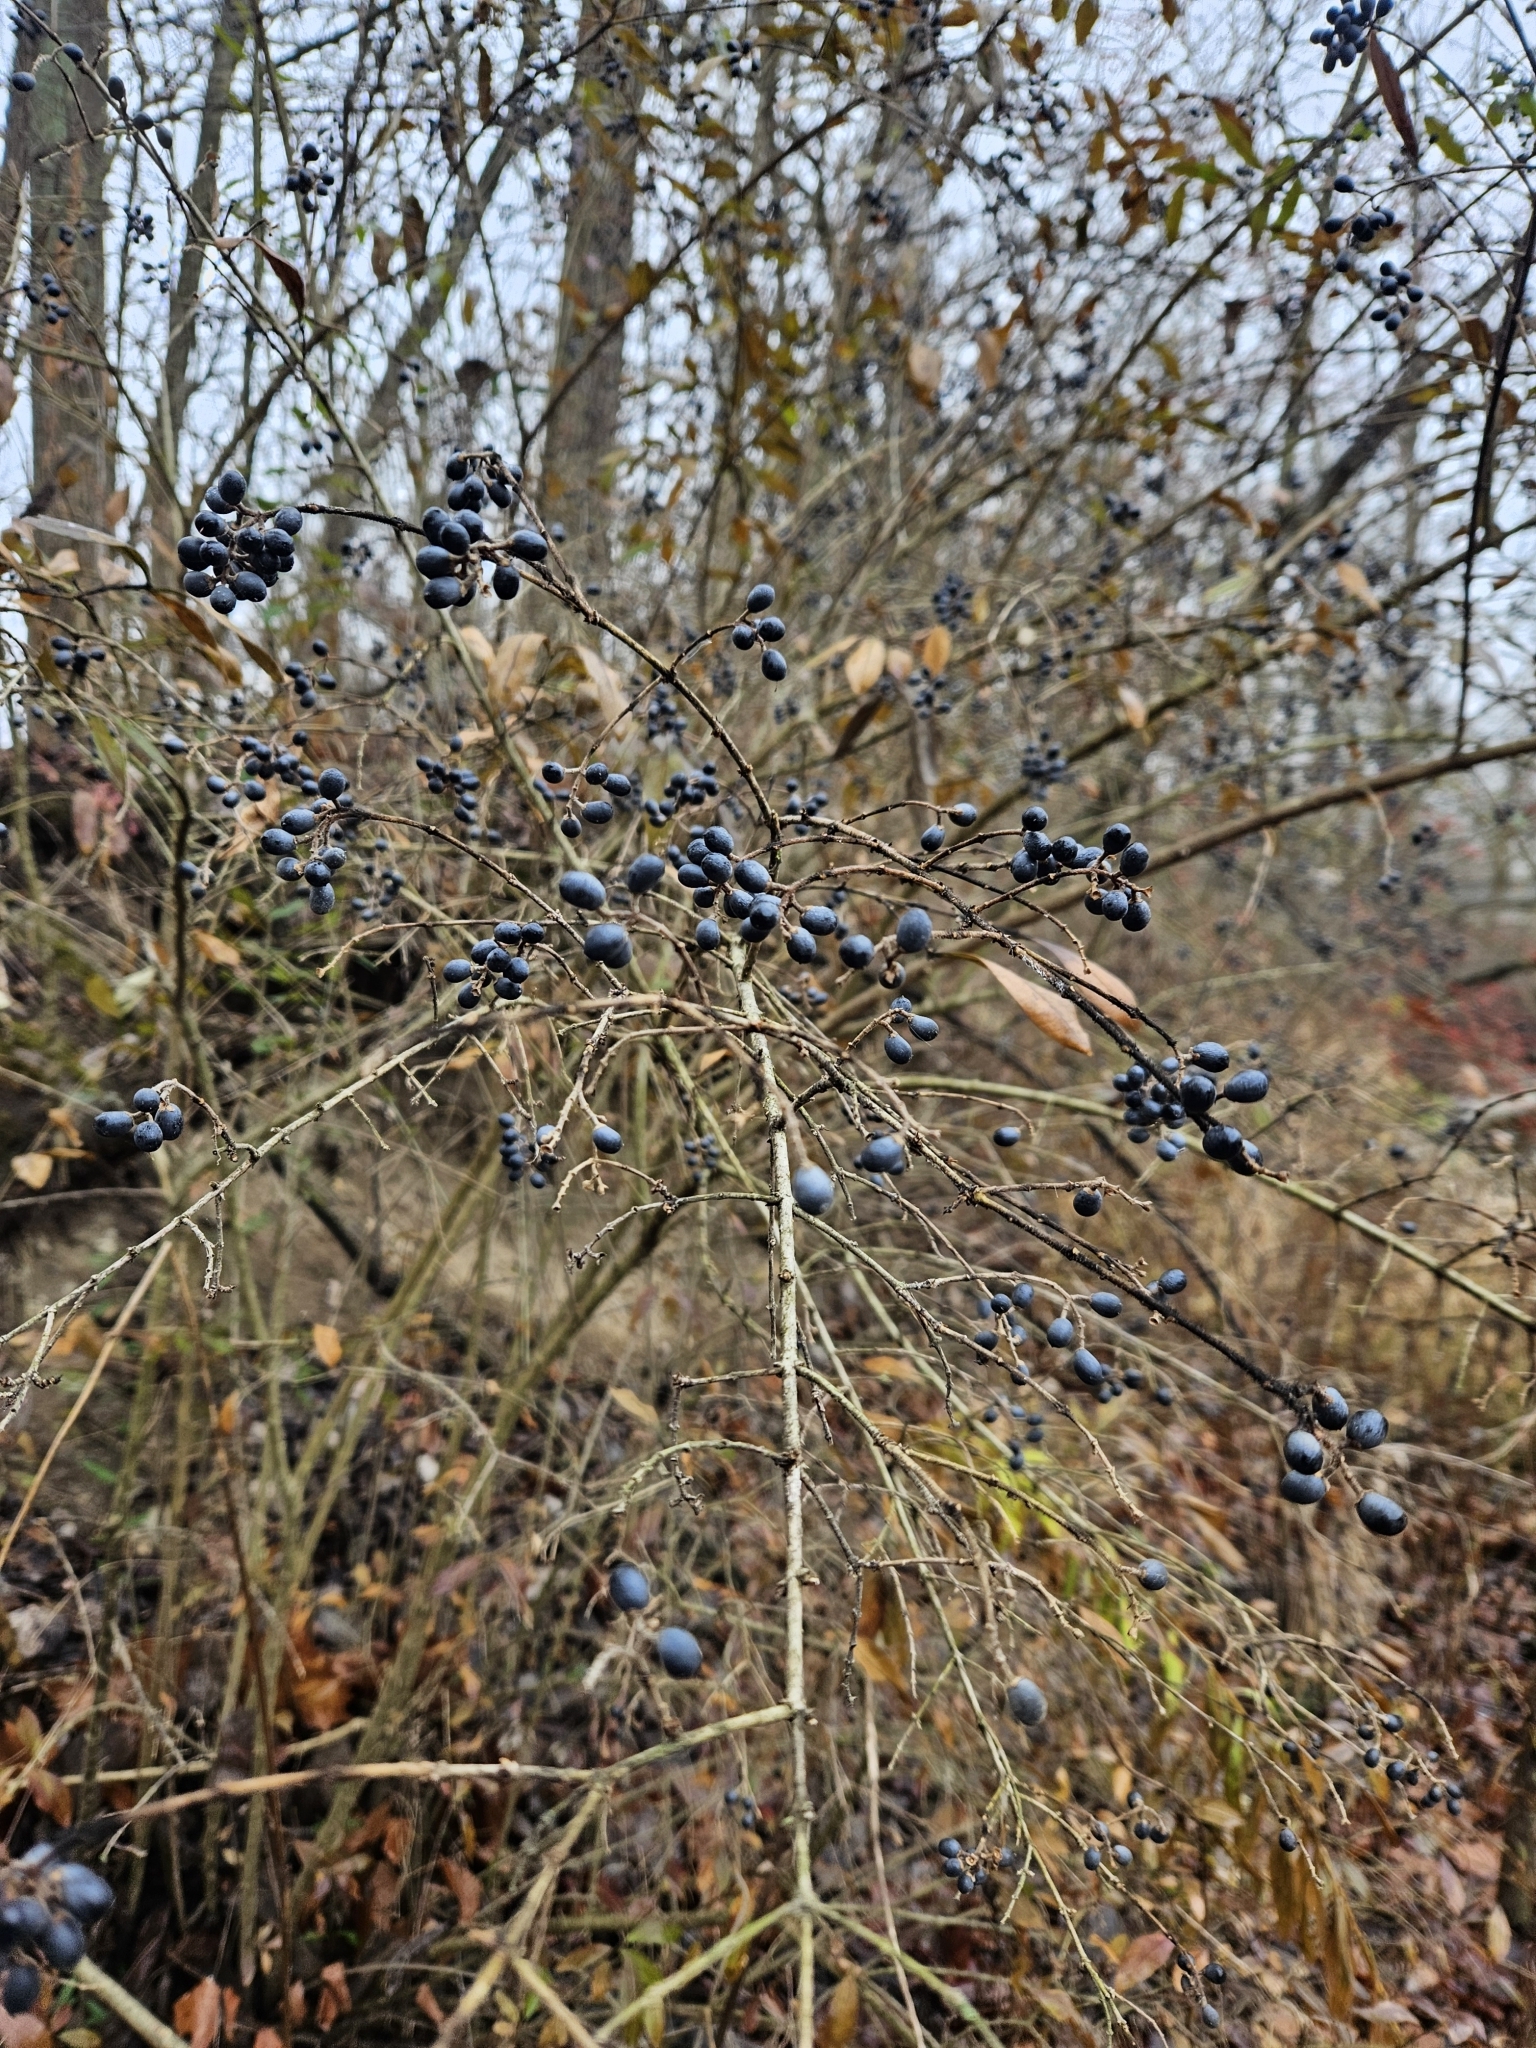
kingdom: Plantae
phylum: Tracheophyta
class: Magnoliopsida
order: Lamiales
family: Oleaceae
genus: Ligustrum
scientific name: Ligustrum obtusifolium
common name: Border privet
